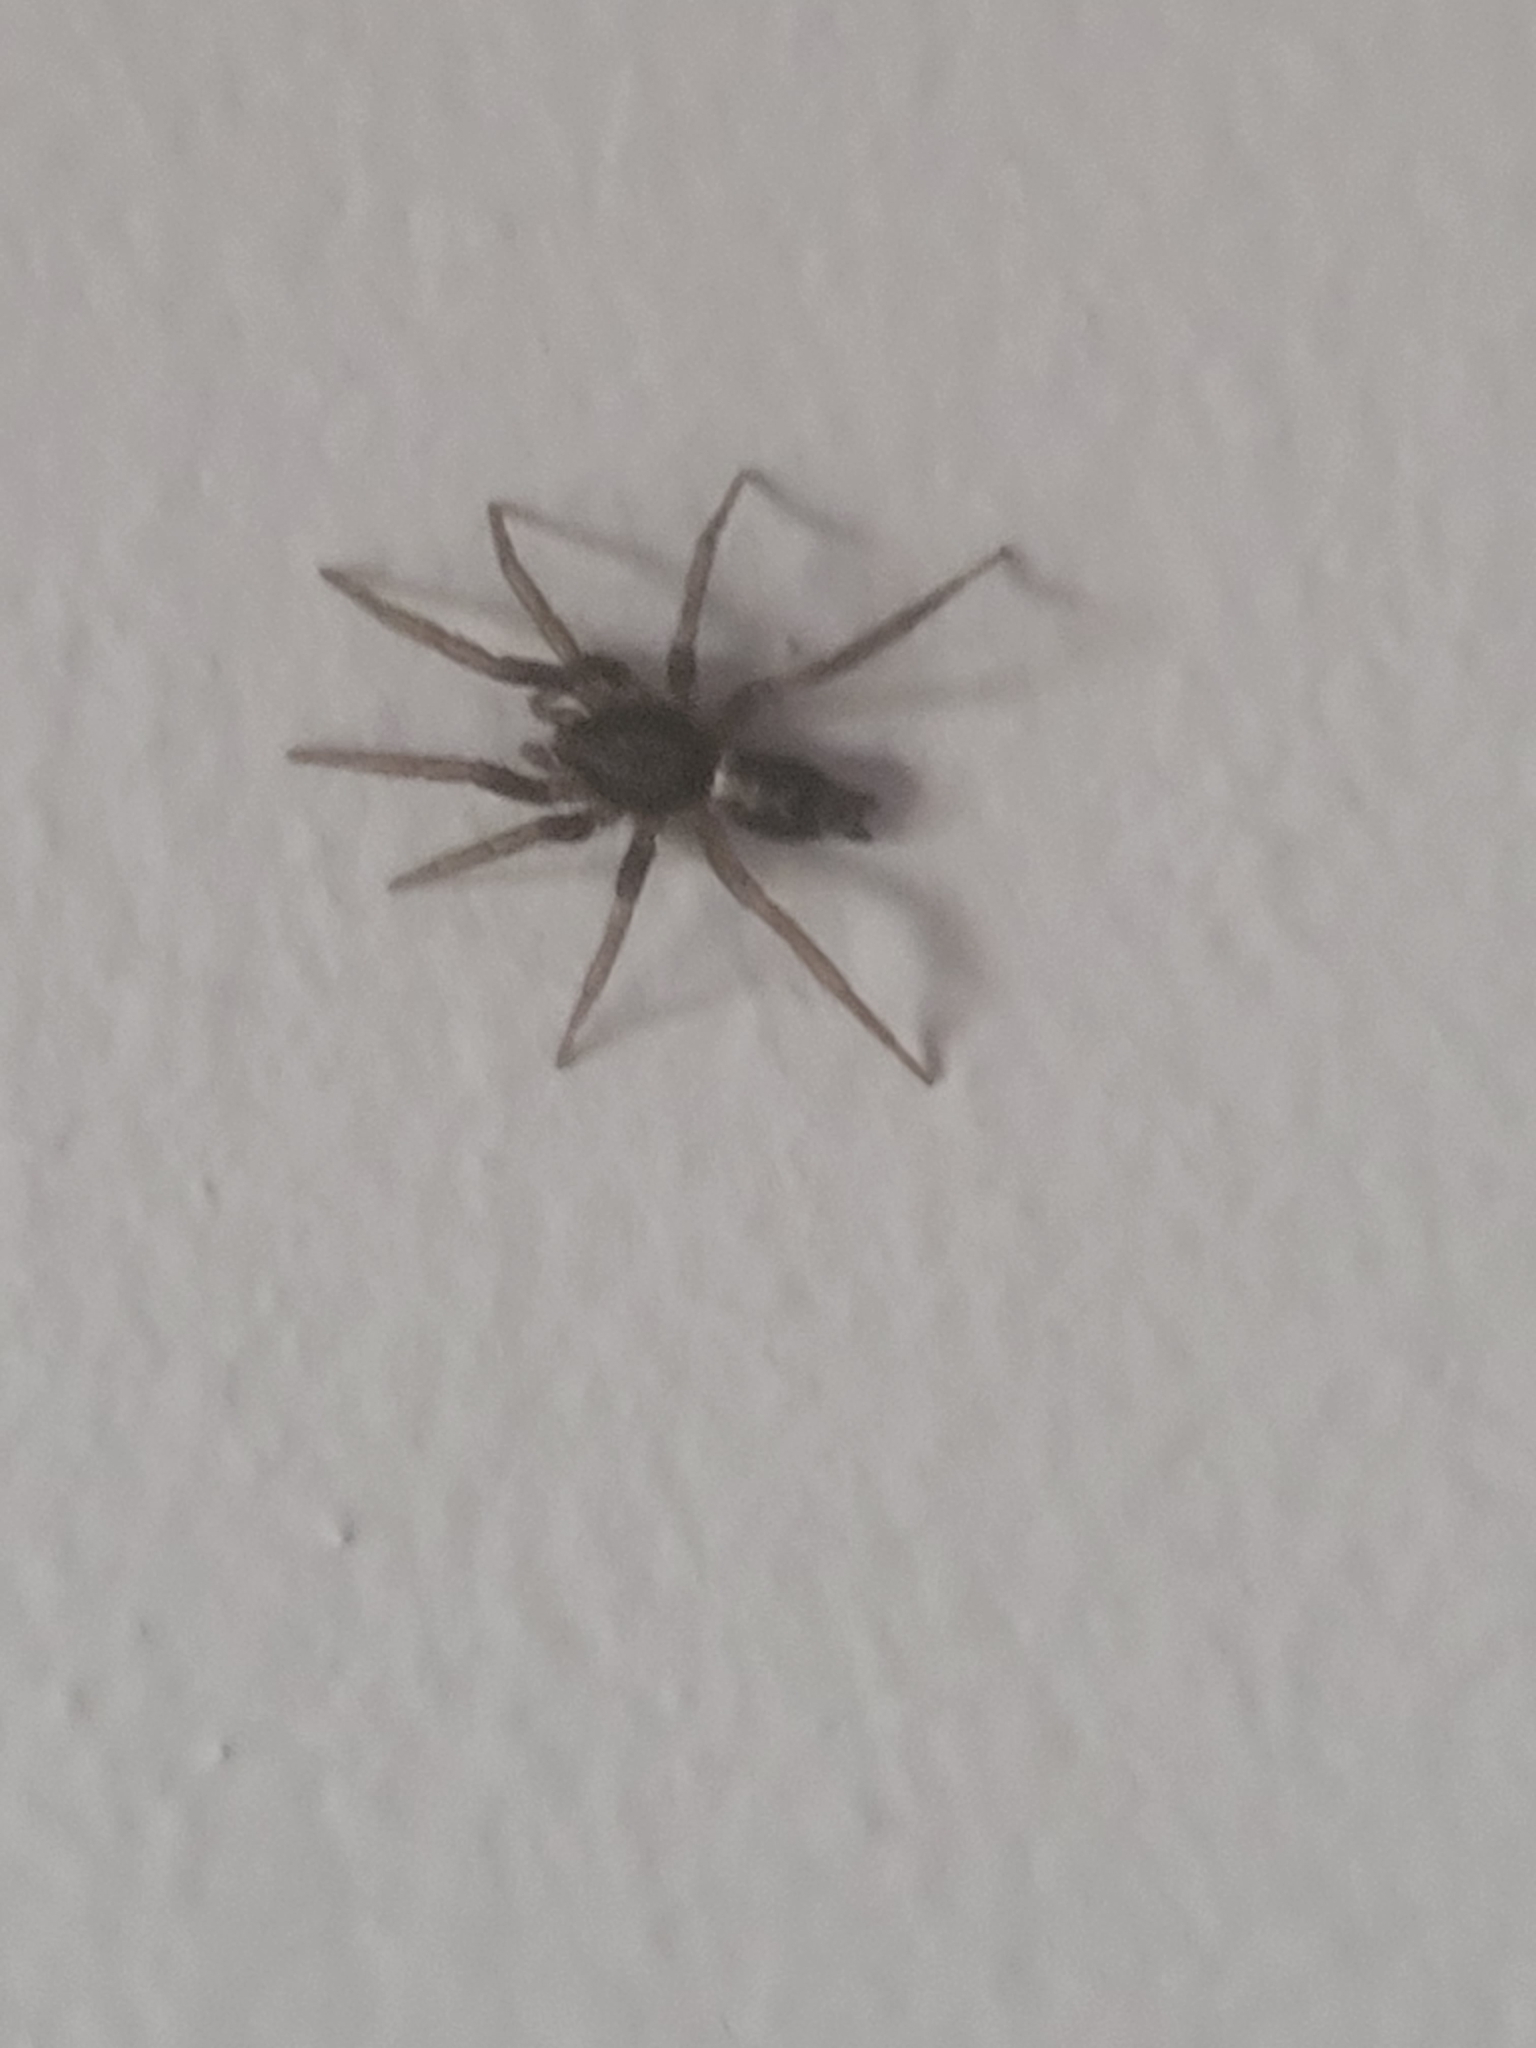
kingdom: Animalia
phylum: Arthropoda
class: Arachnida
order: Araneae
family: Gnaphosidae
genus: Herpyllus
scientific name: Herpyllus ecclesiasticus
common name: Eastern parson spider
